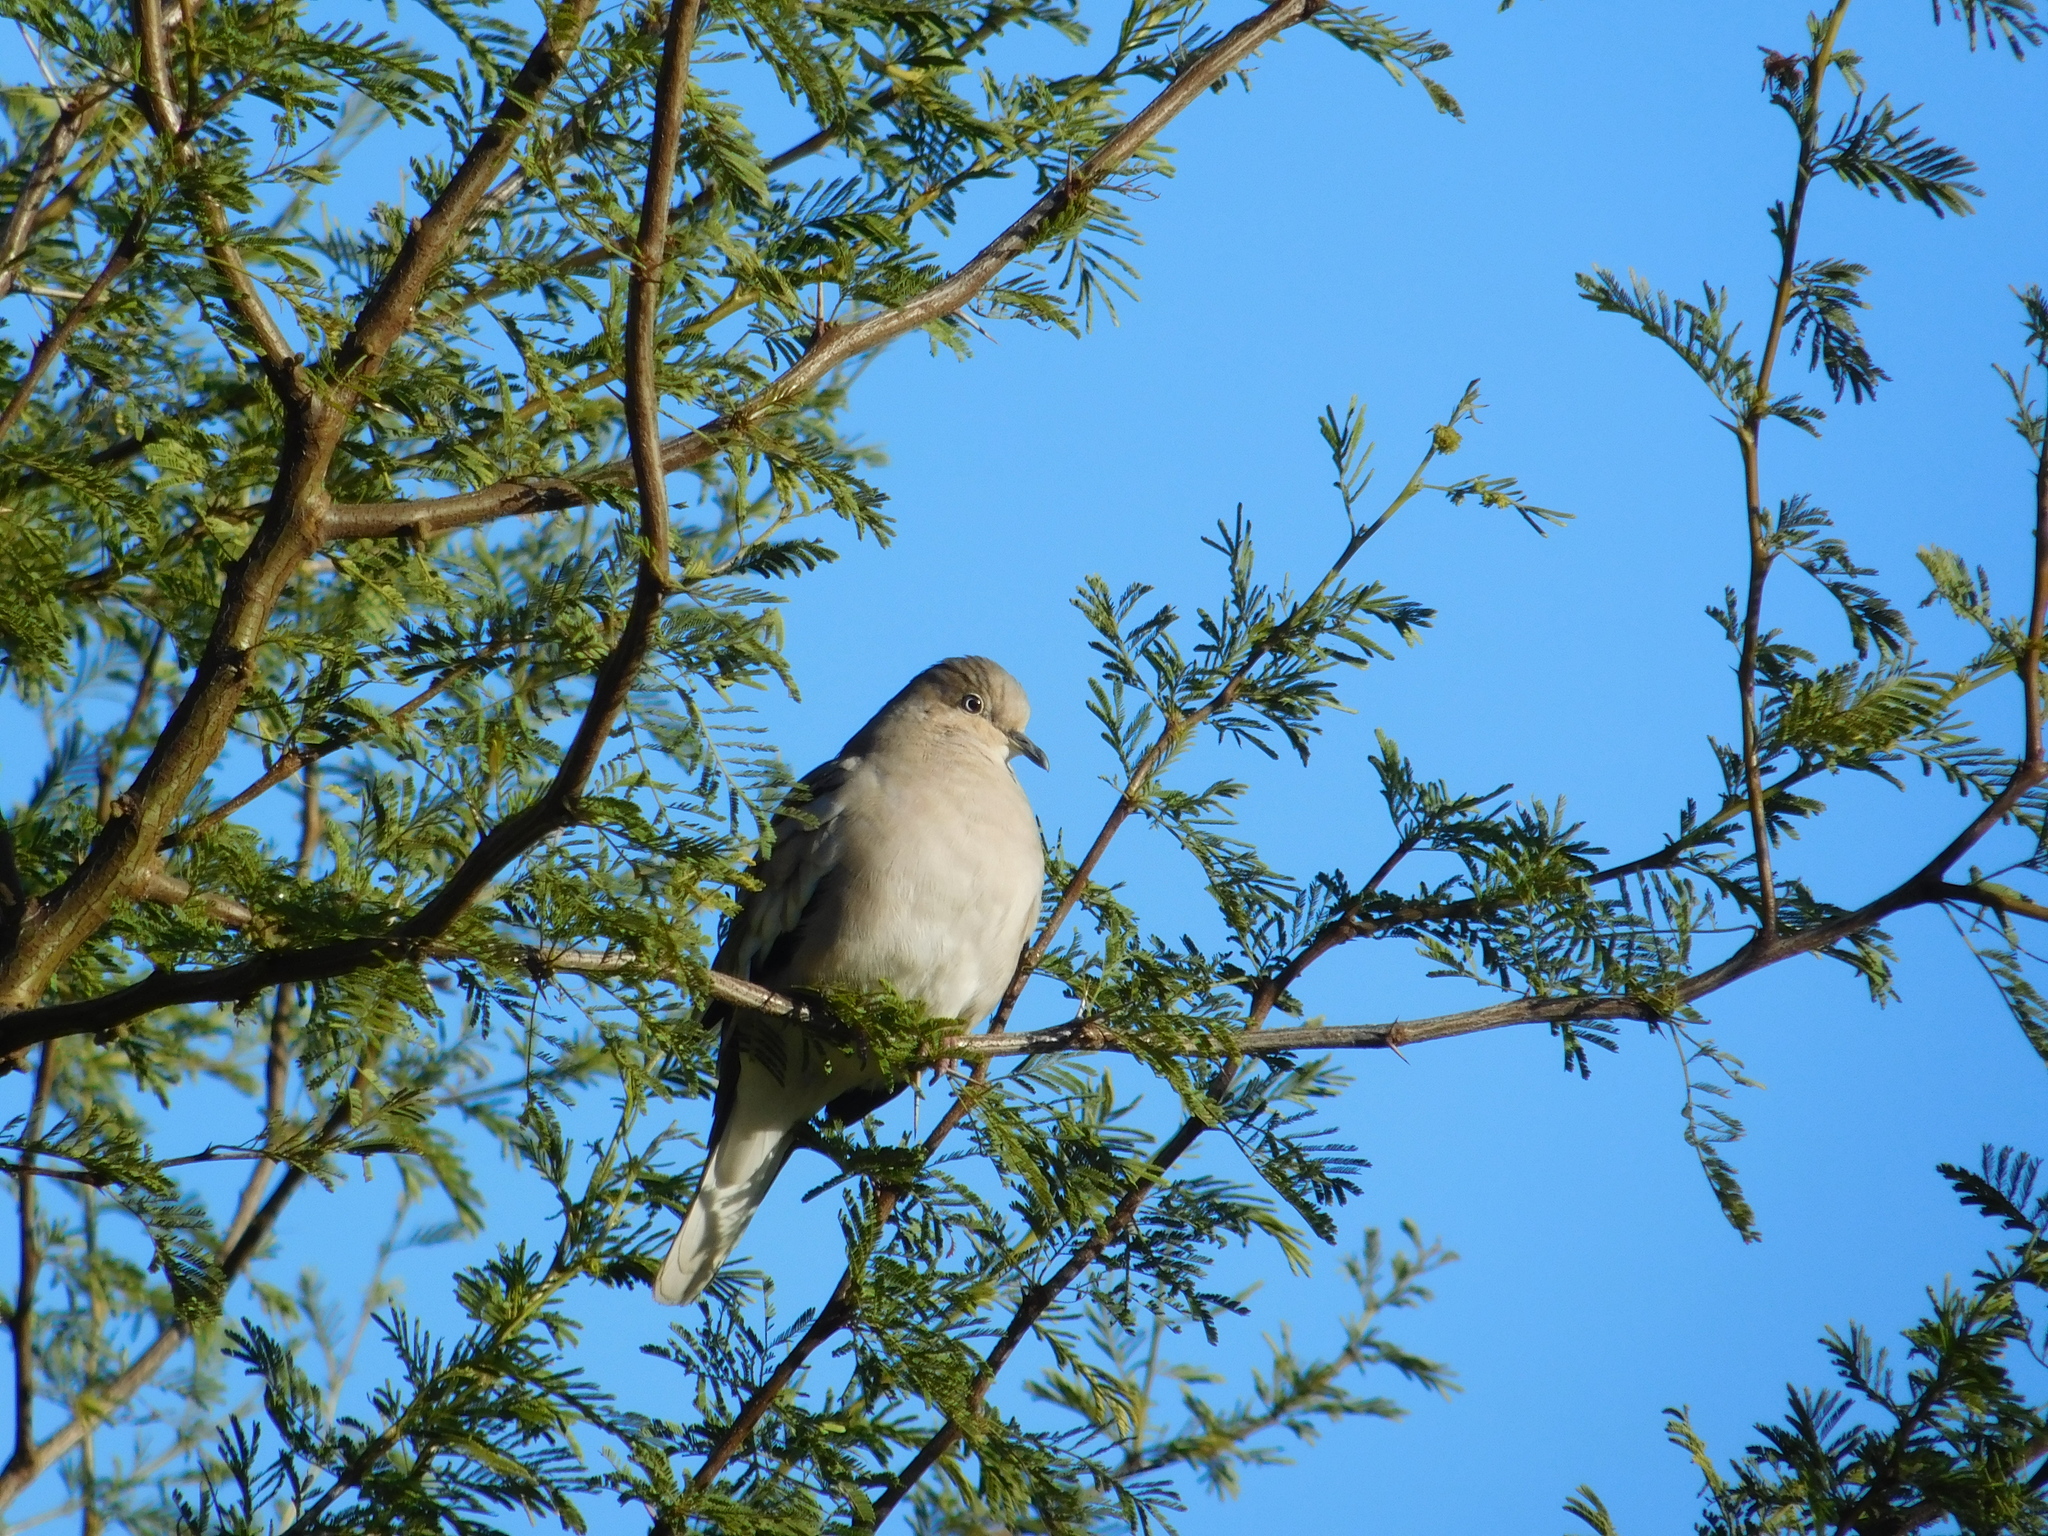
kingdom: Animalia
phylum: Chordata
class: Aves
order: Columbiformes
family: Columbidae
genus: Columbina
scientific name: Columbina picui
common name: Picui ground dove
